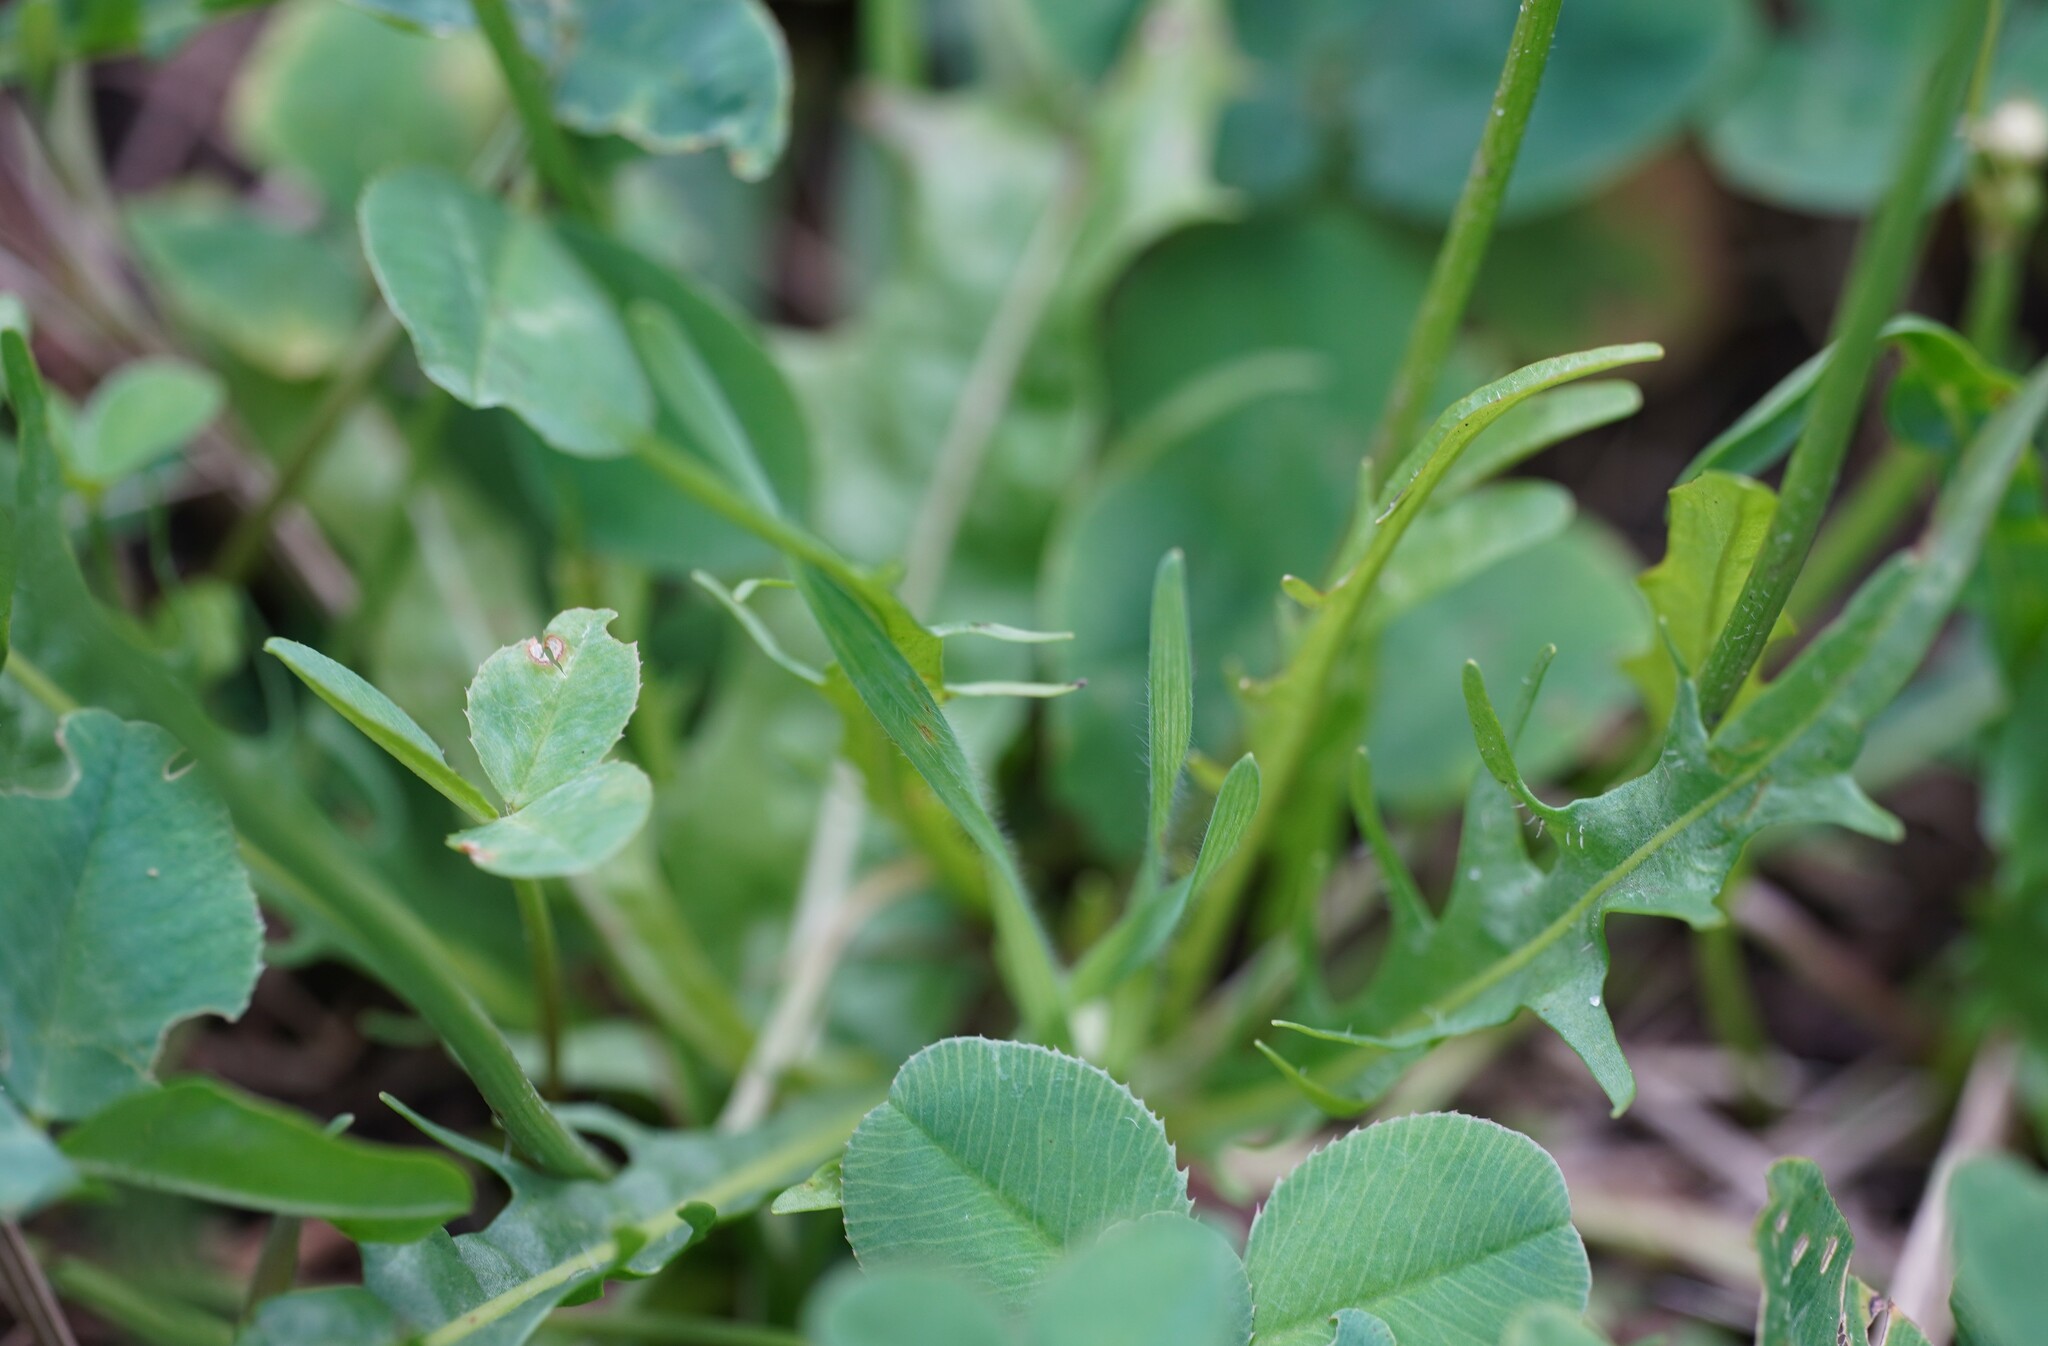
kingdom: Plantae
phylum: Tracheophyta
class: Magnoliopsida
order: Asterales
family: Asteraceae
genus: Scorzoneroides
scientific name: Scorzoneroides autumnalis
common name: Autumn hawkbit
